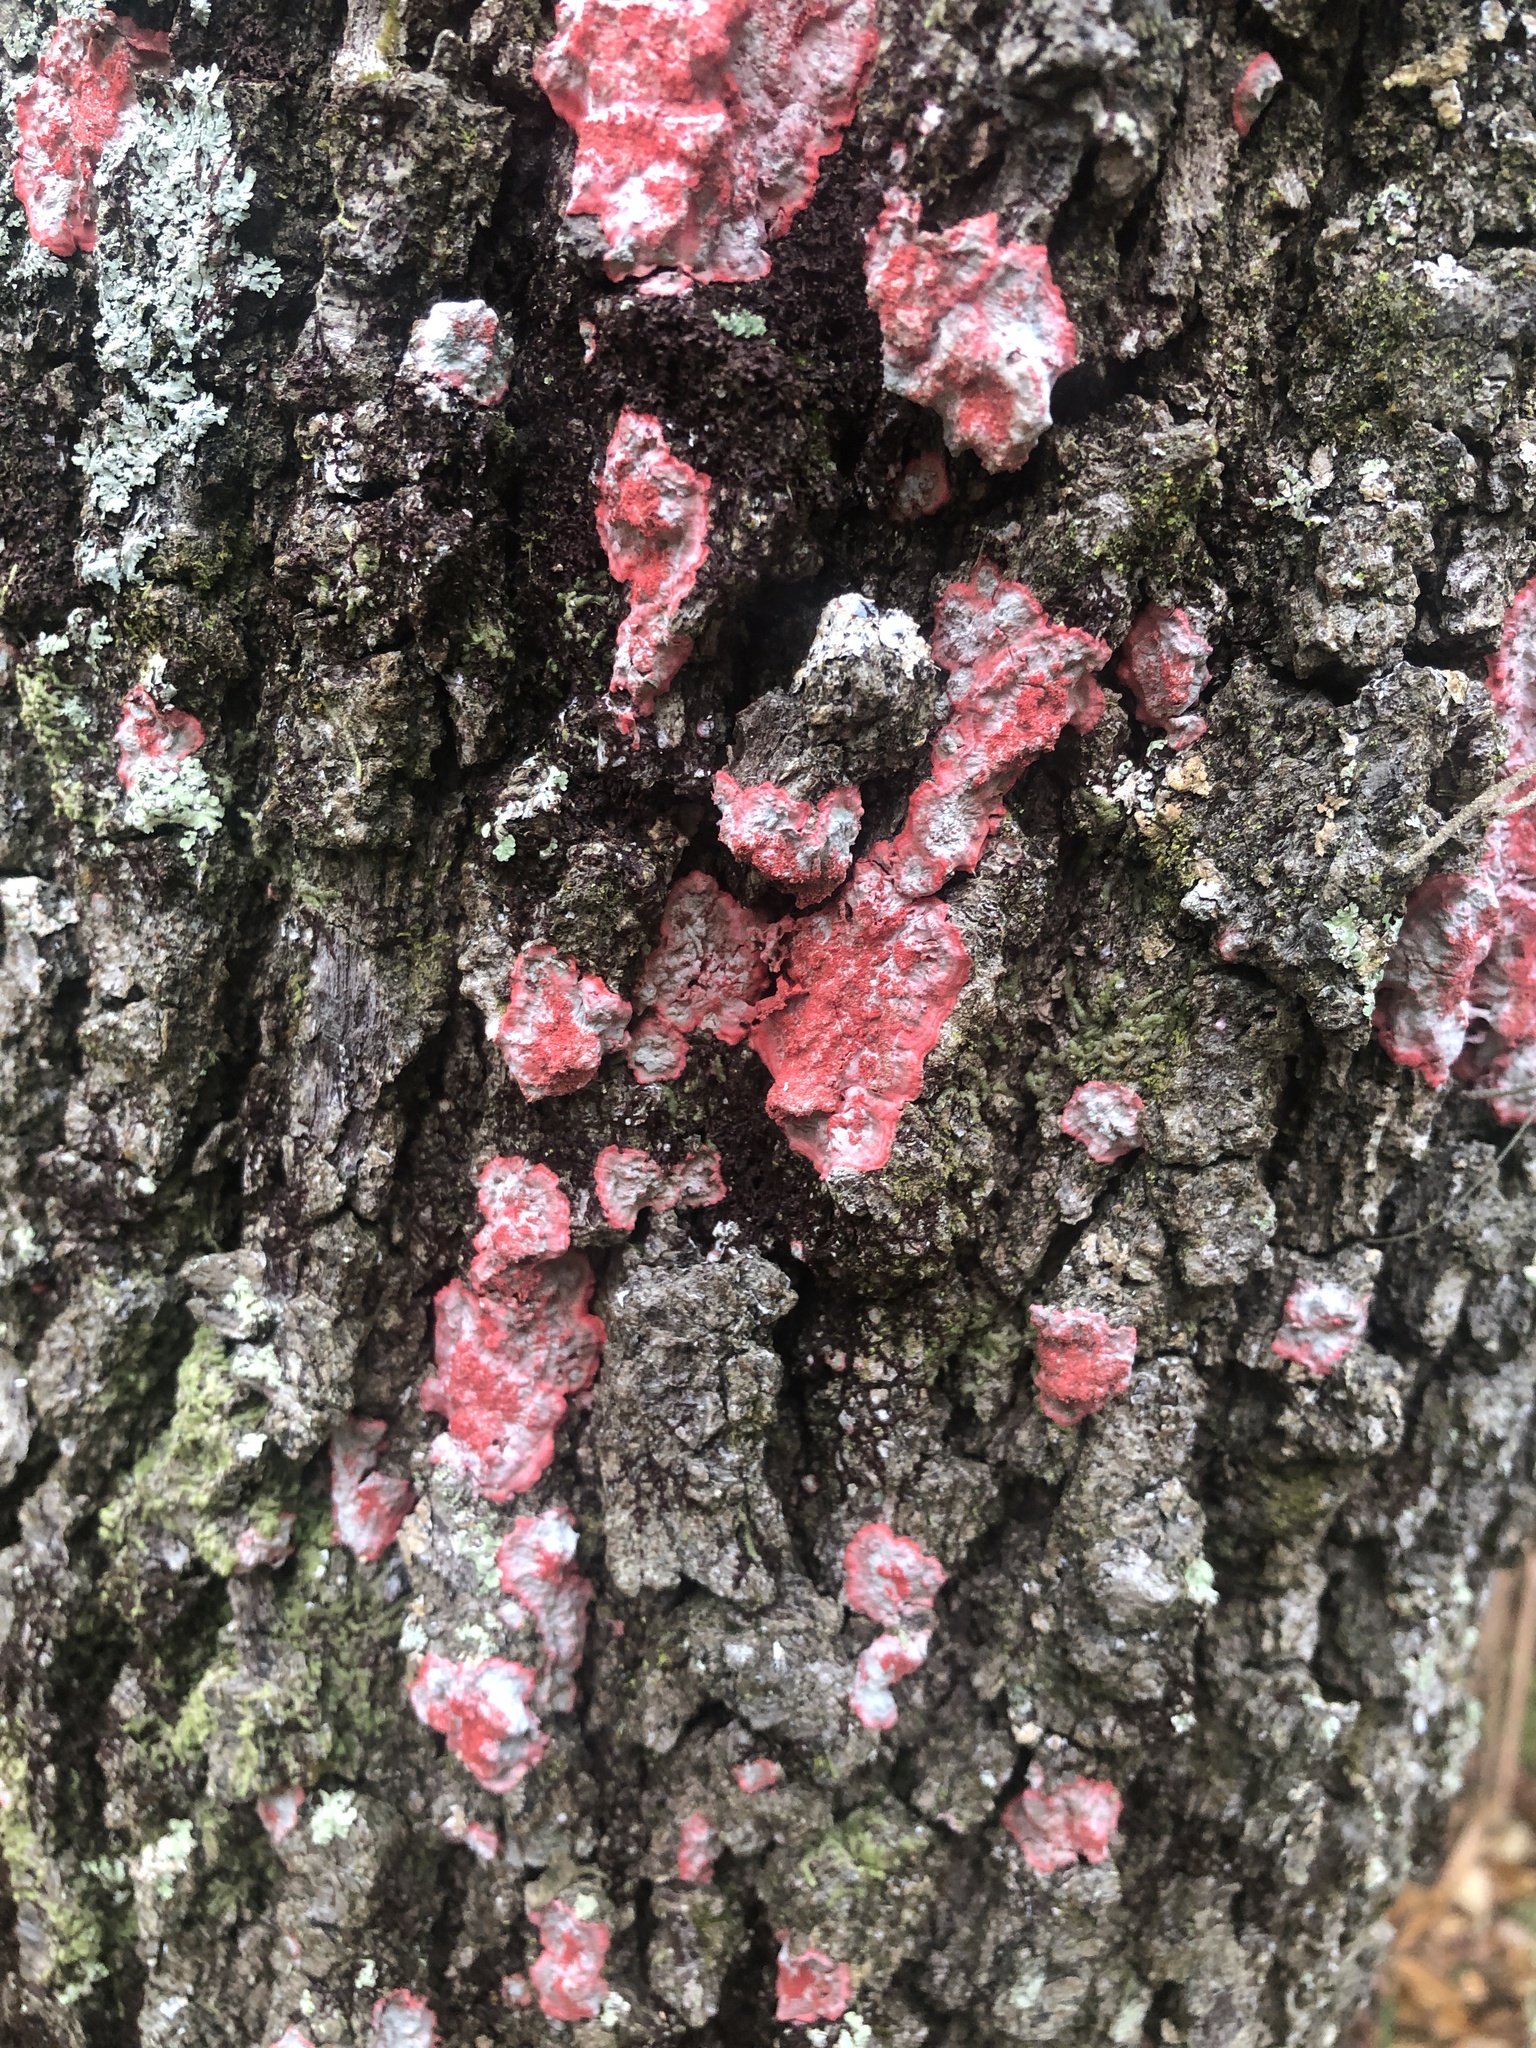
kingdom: Fungi
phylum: Ascomycota
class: Arthoniomycetes
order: Arthoniales
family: Arthoniaceae
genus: Herpothallon
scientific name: Herpothallon rubrocinctum
